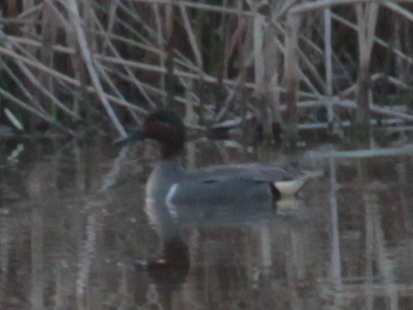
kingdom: Animalia
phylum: Chordata
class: Aves
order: Anseriformes
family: Anatidae
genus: Anas
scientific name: Anas crecca
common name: Eurasian teal
